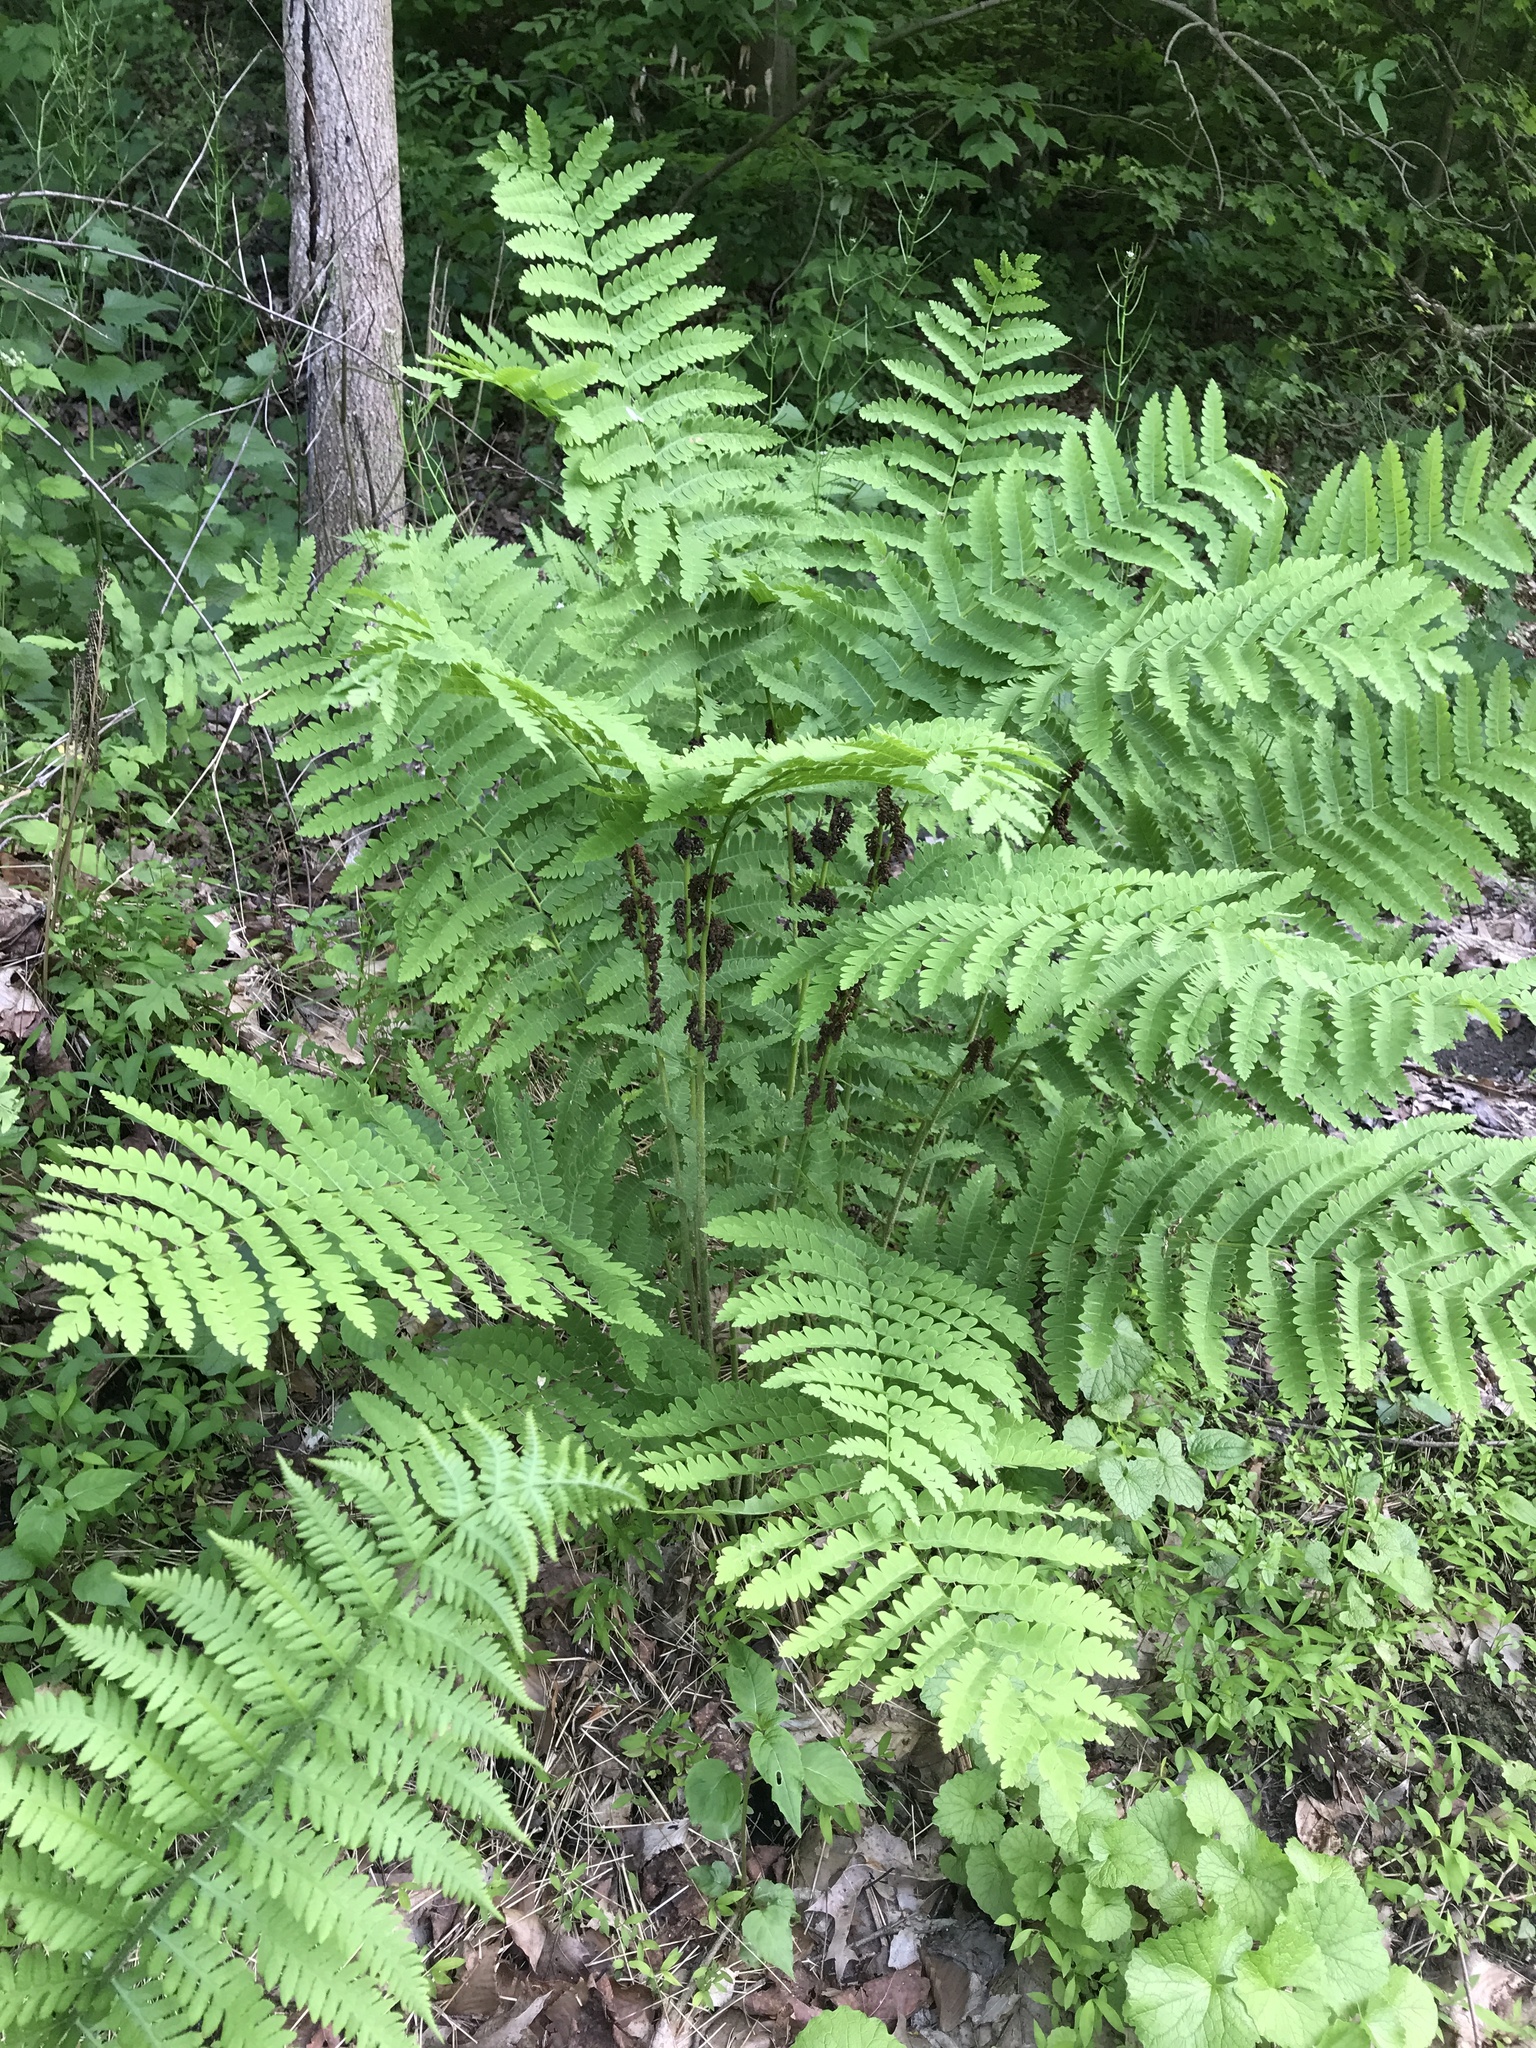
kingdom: Plantae
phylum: Tracheophyta
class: Polypodiopsida
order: Osmundales
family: Osmundaceae
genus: Claytosmunda
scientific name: Claytosmunda claytoniana
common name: Clayton's fern
